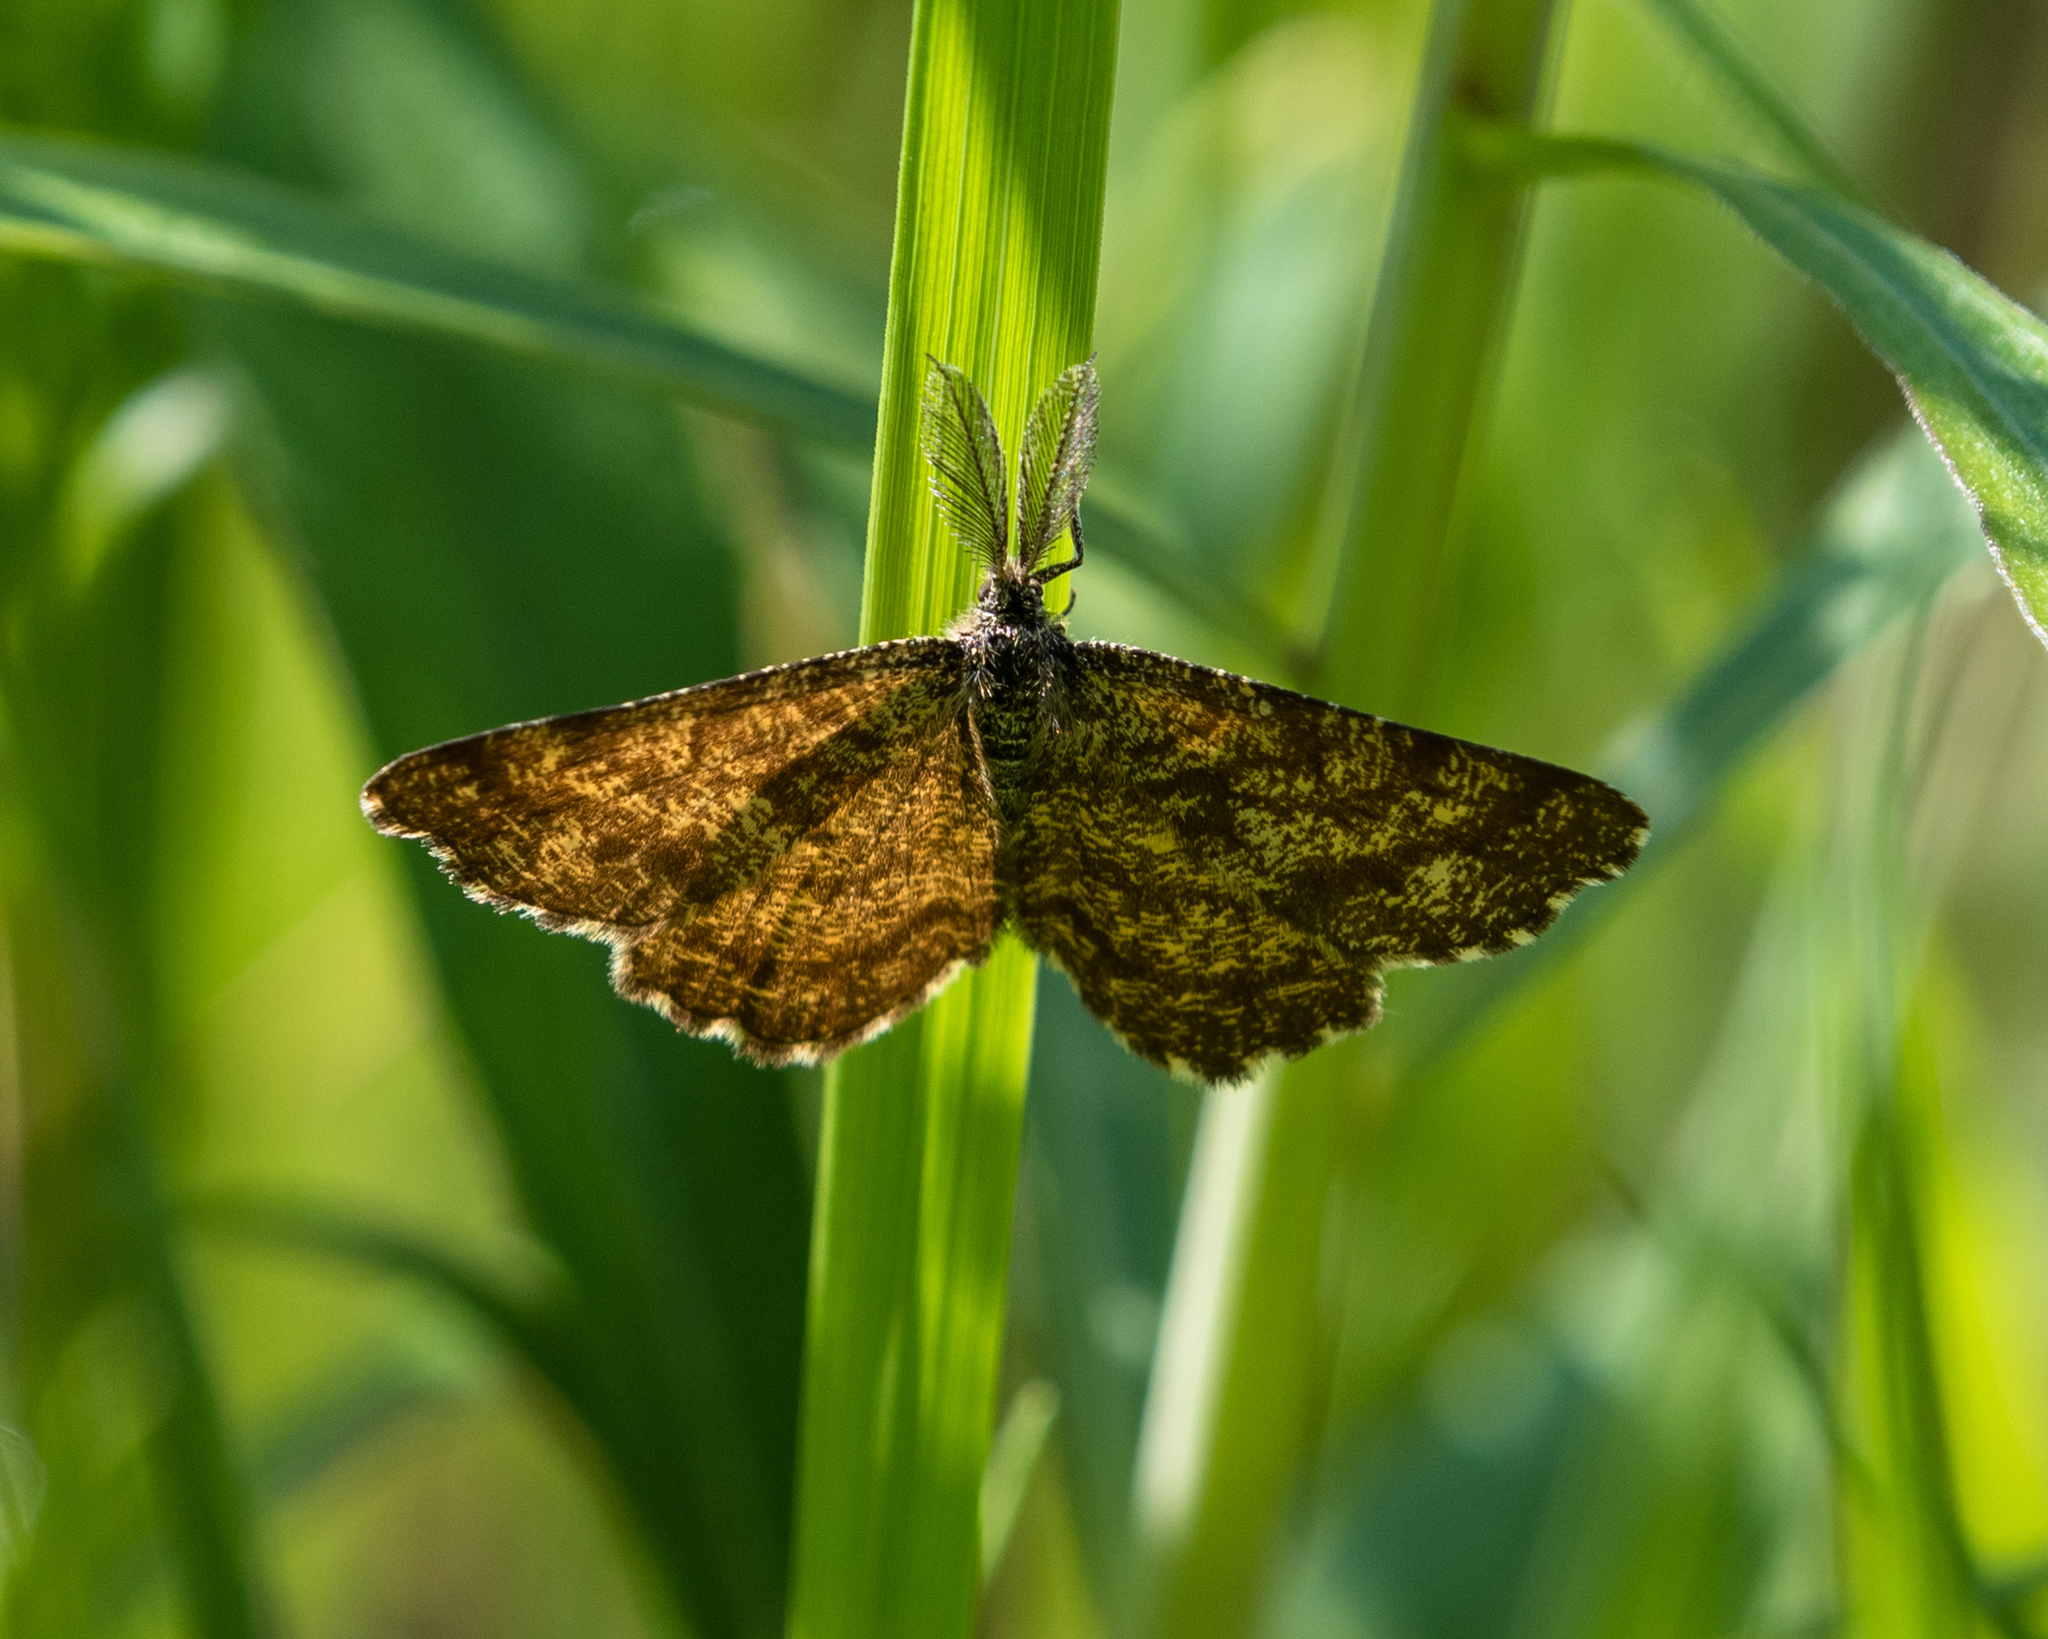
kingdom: Animalia
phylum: Arthropoda
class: Insecta
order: Lepidoptera
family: Geometridae
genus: Ematurga
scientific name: Ematurga atomaria
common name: Common heath
